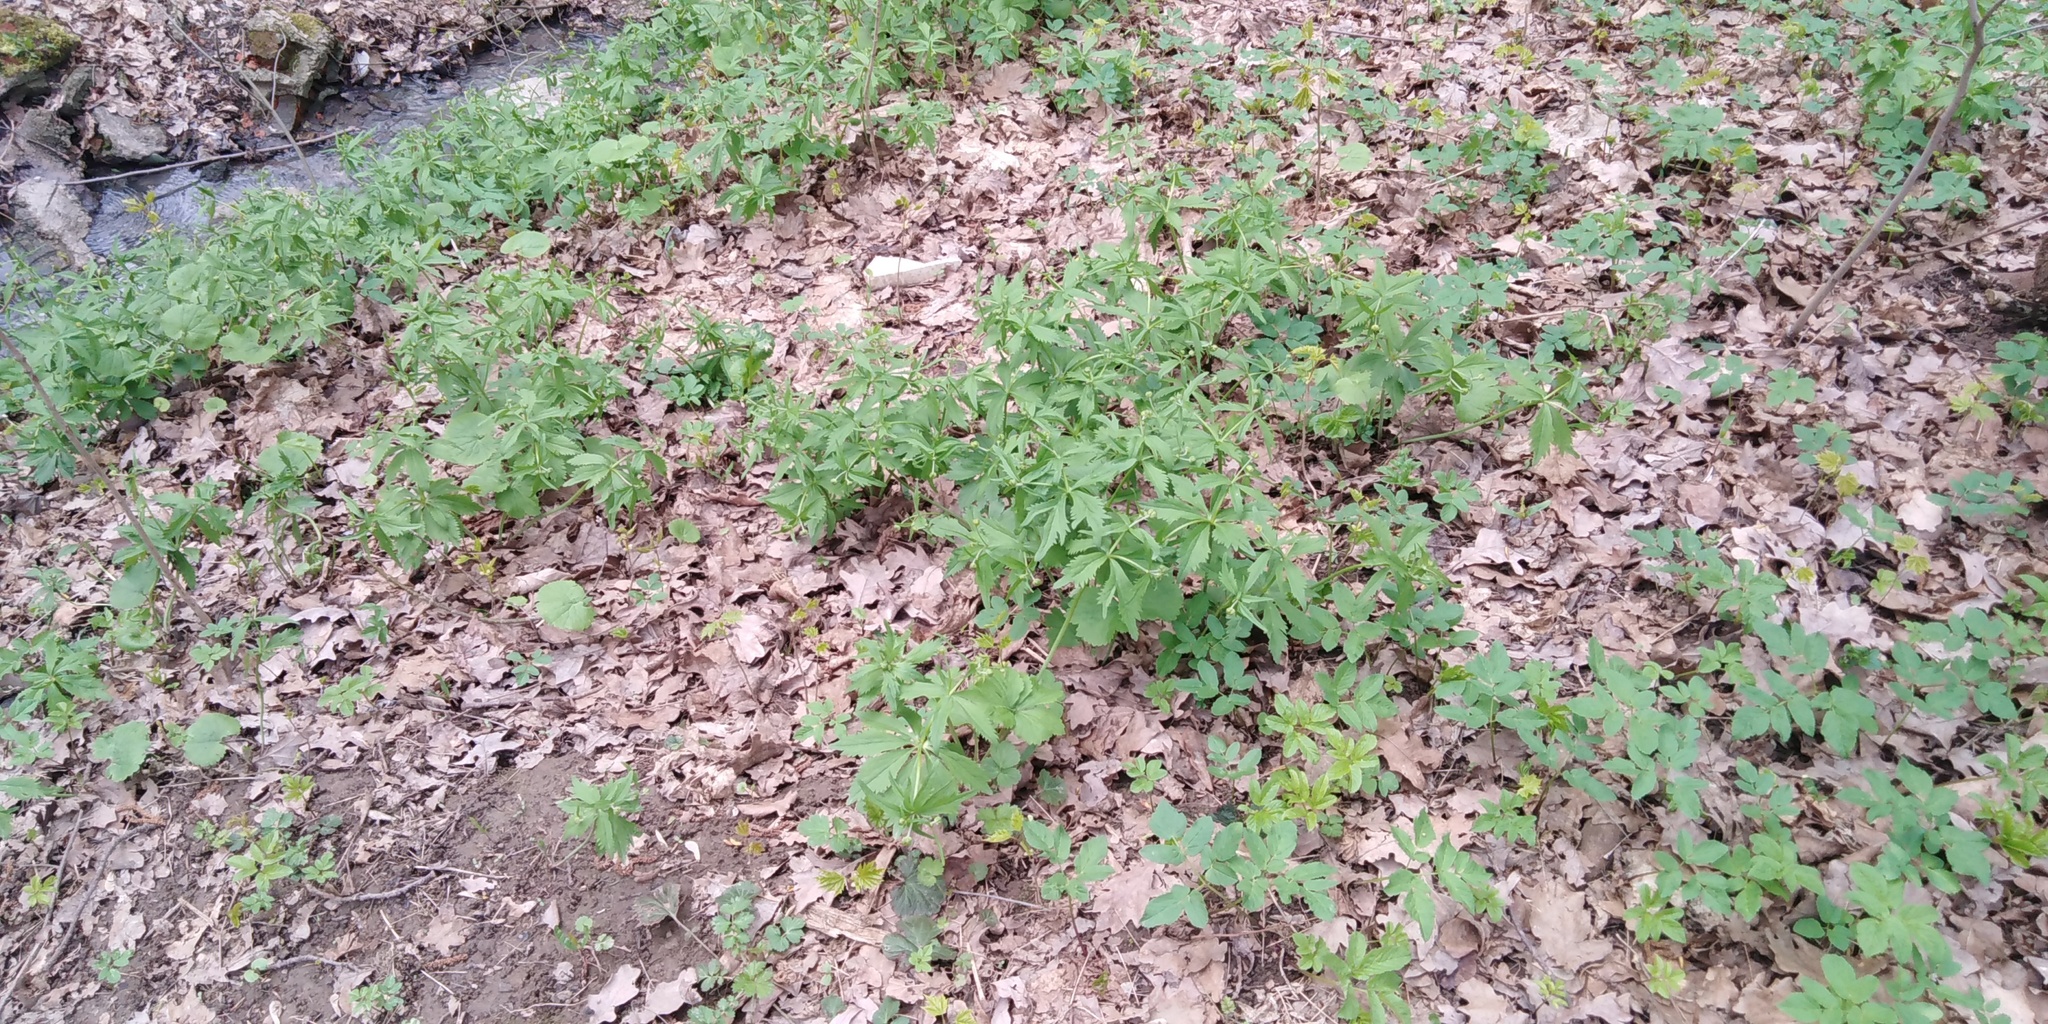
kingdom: Plantae
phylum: Tracheophyta
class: Magnoliopsida
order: Ranunculales
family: Ranunculaceae
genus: Ranunculus
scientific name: Ranunculus cassubicus
